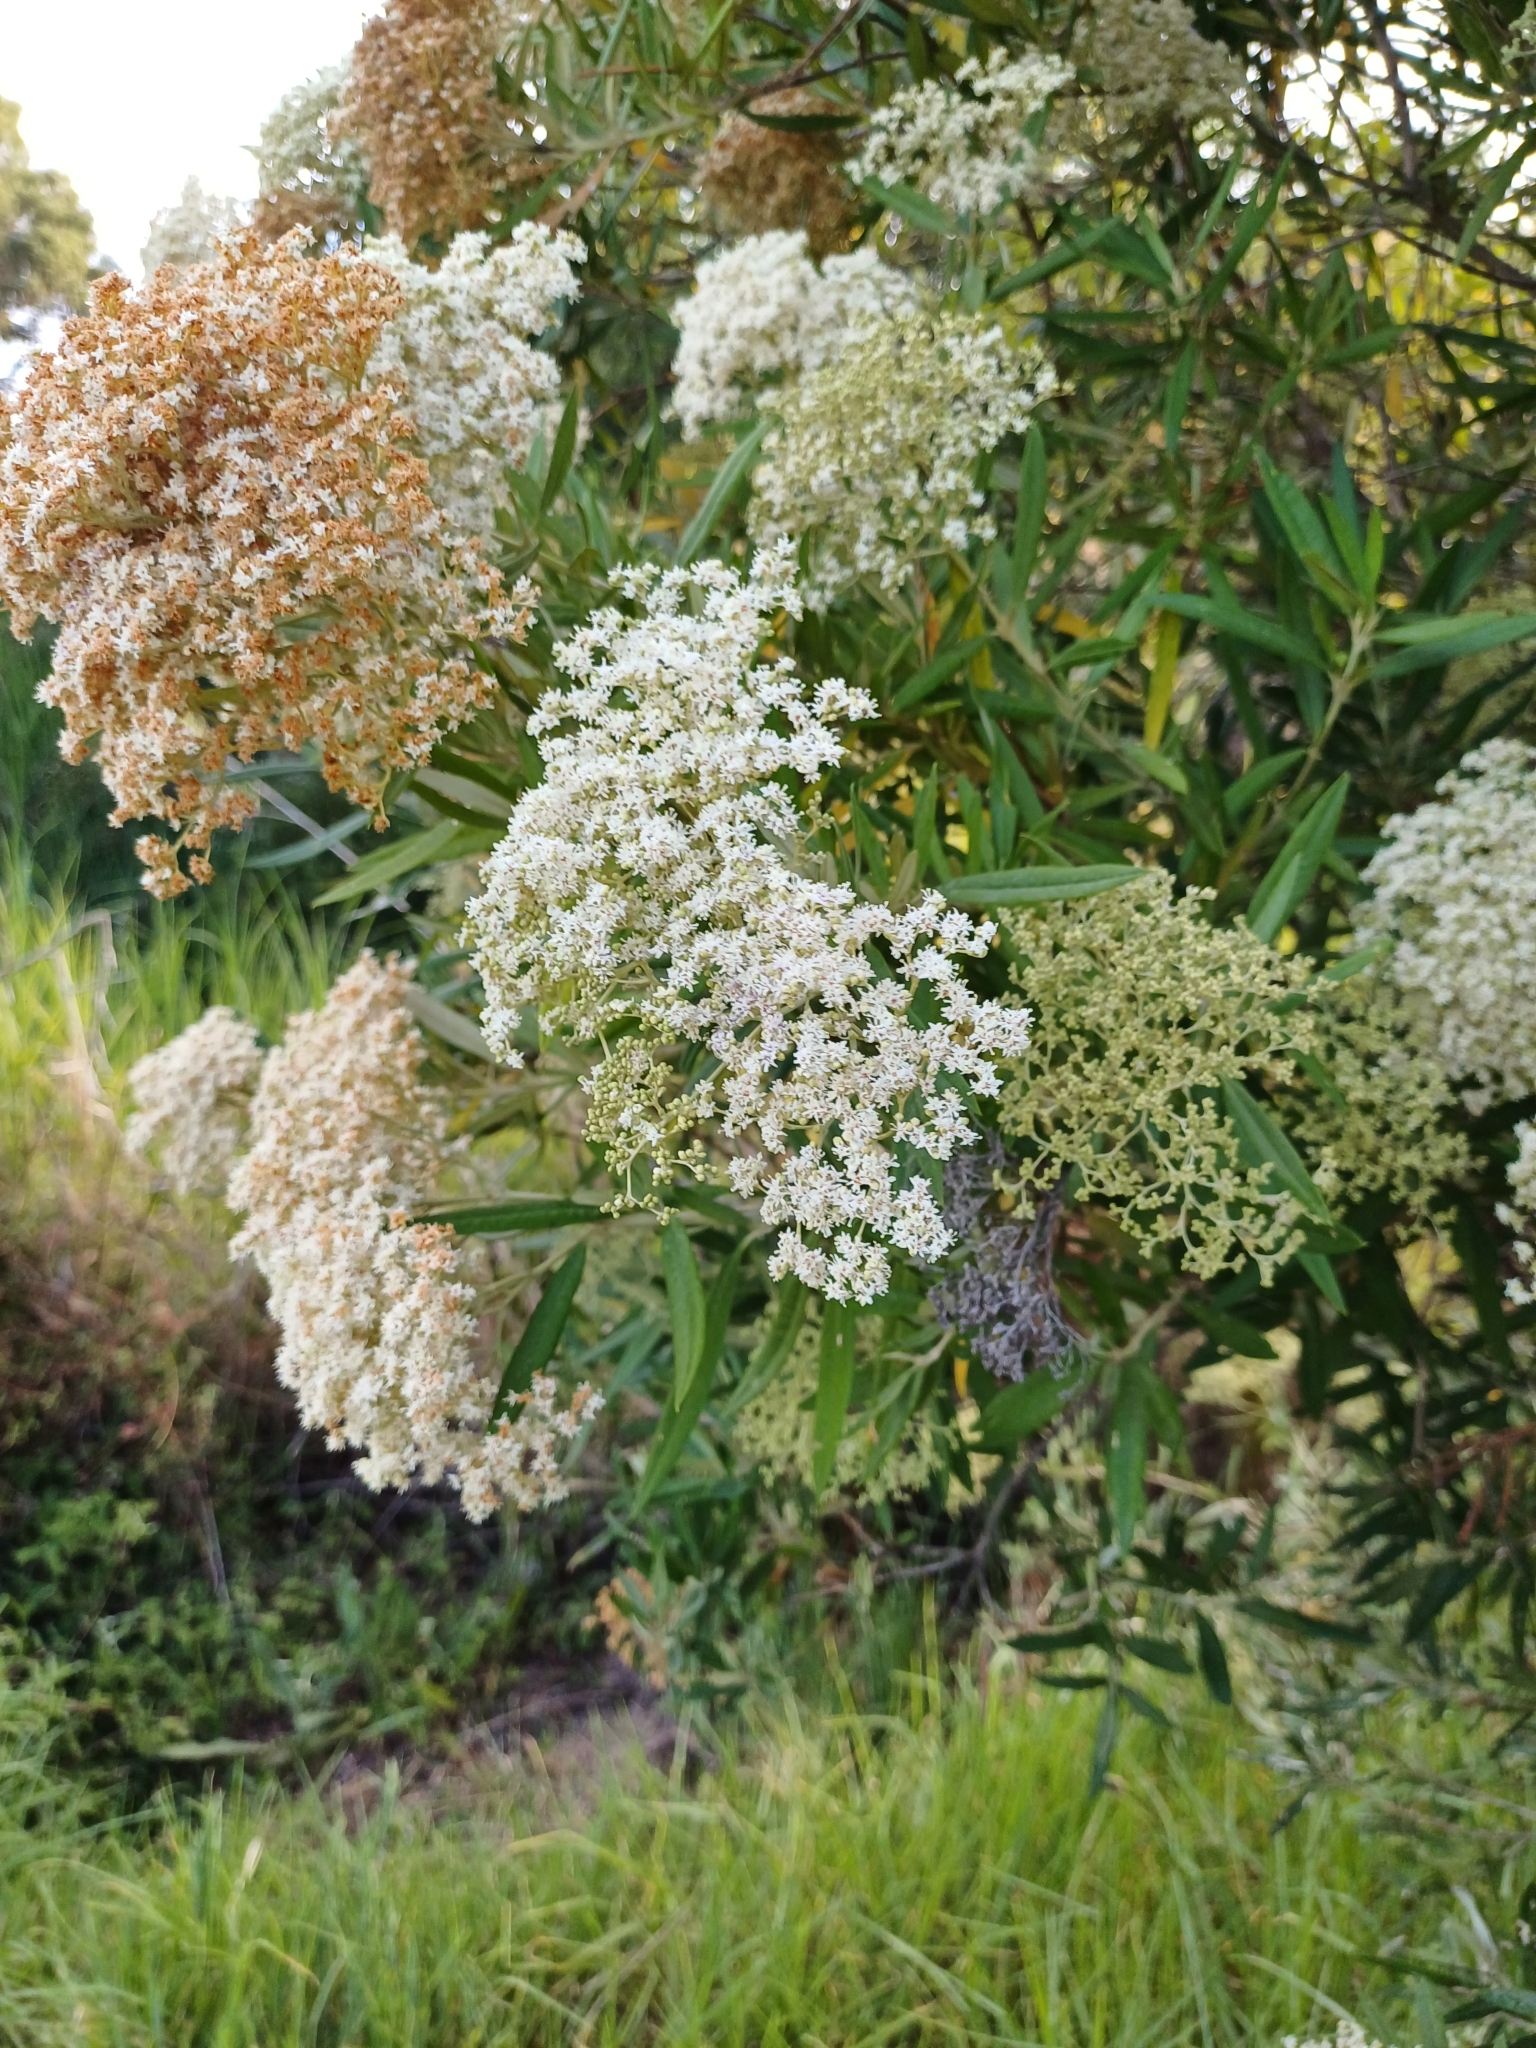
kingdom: Plantae
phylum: Tracheophyta
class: Magnoliopsida
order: Lamiales
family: Scrophulariaceae
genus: Buddleja
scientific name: Buddleja saligna
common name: False olive
